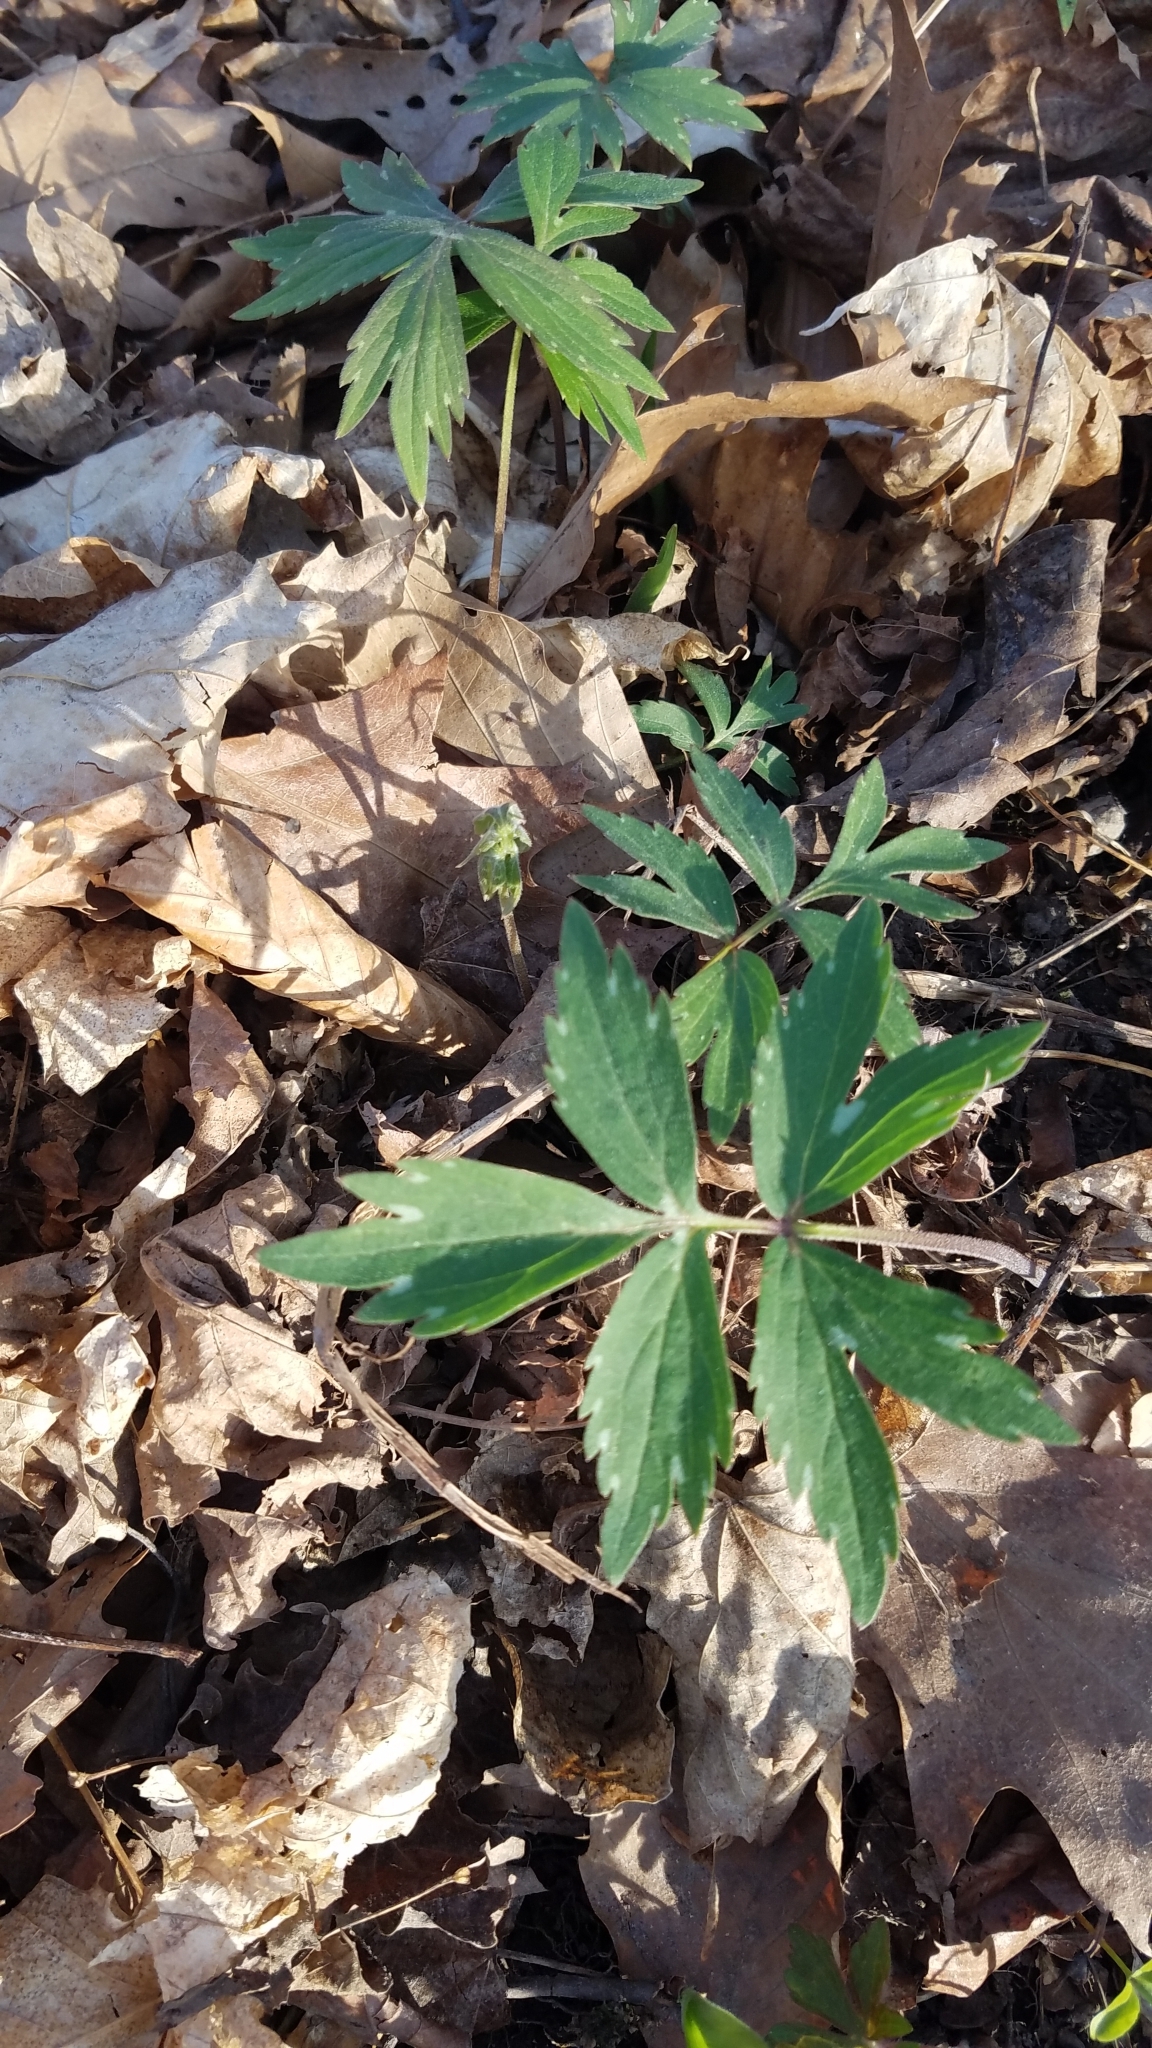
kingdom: Plantae
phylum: Tracheophyta
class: Magnoliopsida
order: Boraginales
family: Hydrophyllaceae
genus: Hydrophyllum
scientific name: Hydrophyllum virginianum
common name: Virginia waterleaf
